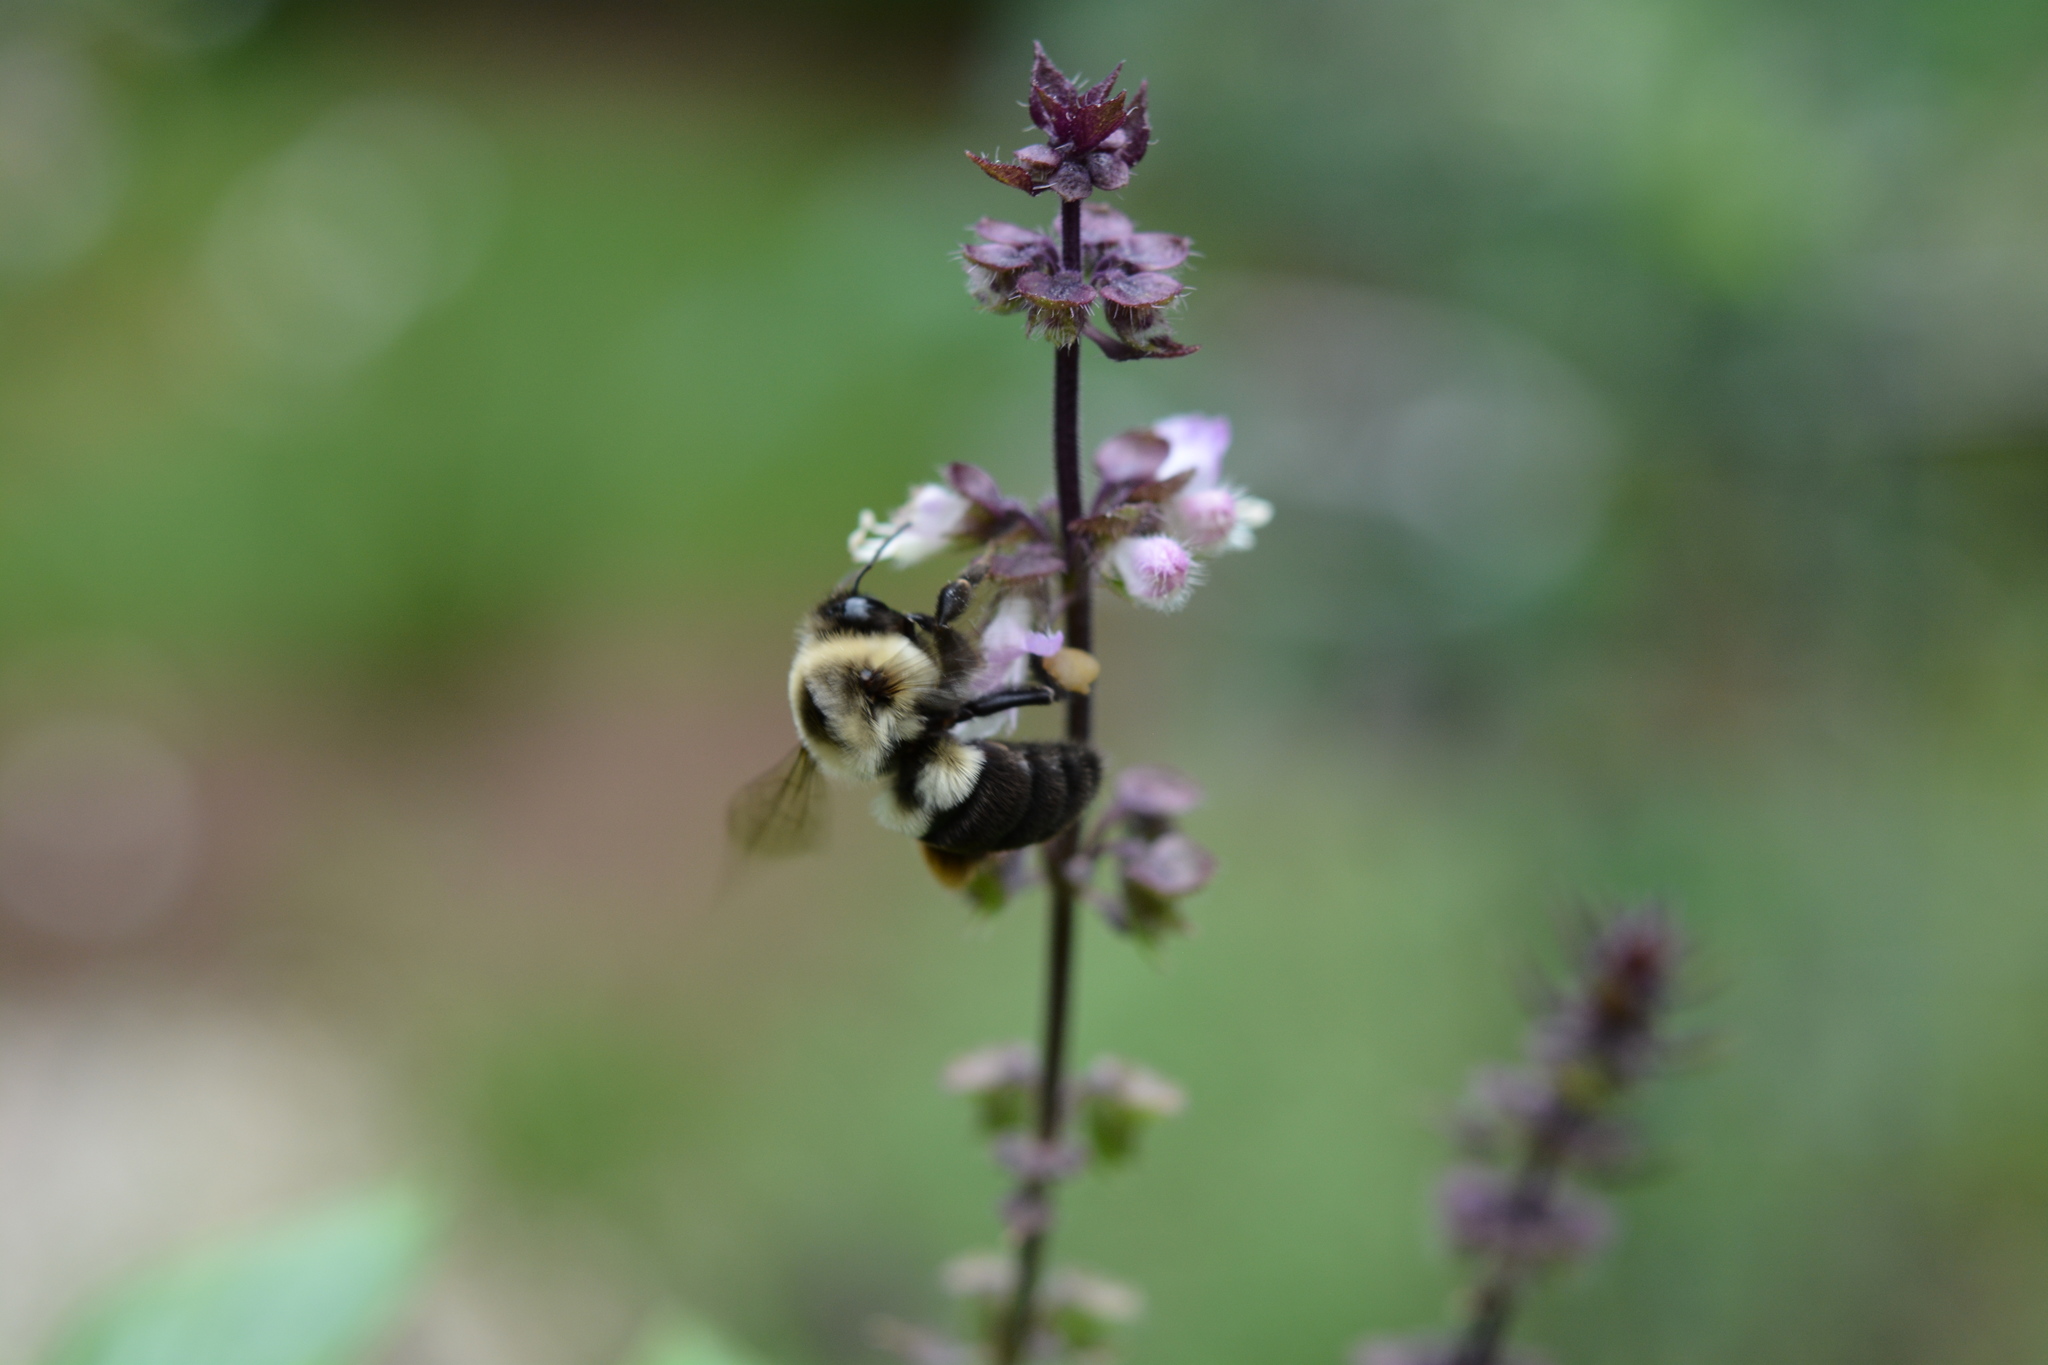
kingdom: Animalia
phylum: Arthropoda
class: Insecta
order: Hymenoptera
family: Apidae
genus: Bombus
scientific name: Bombus impatiens
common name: Common eastern bumble bee
